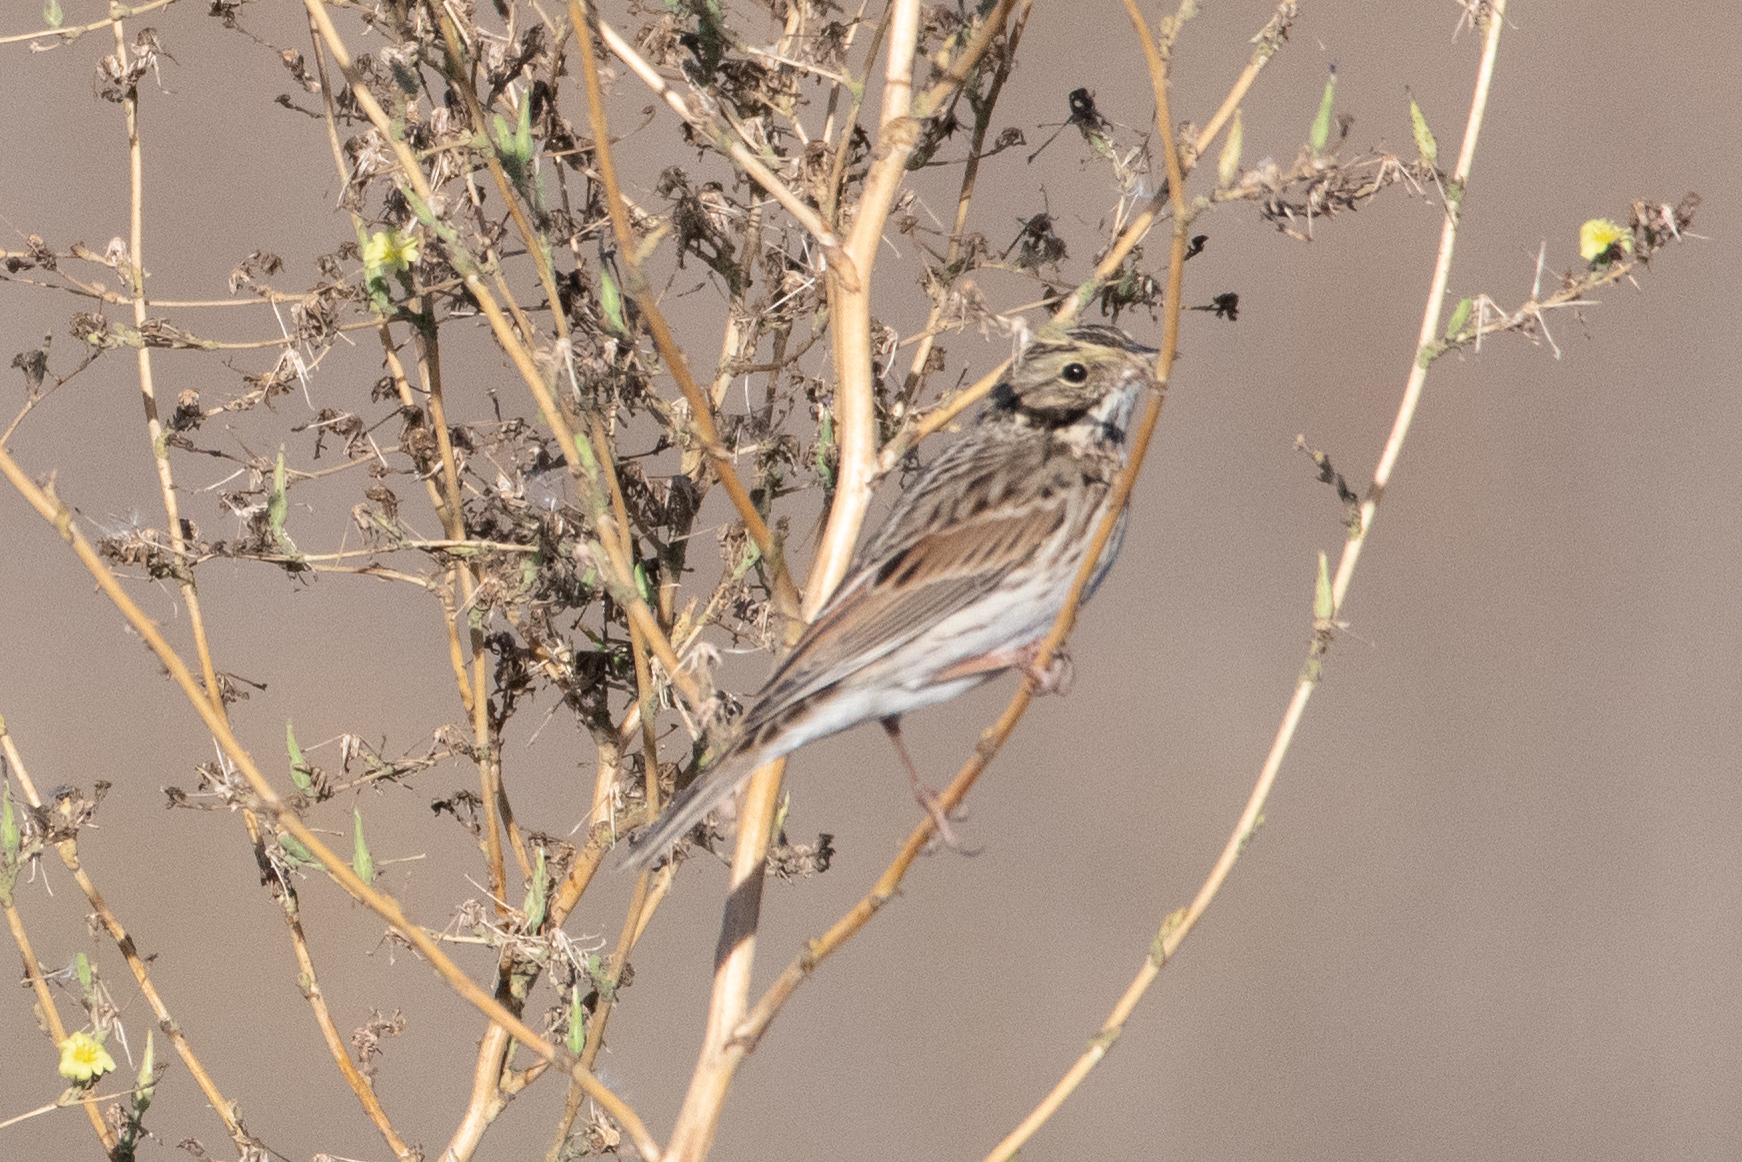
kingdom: Animalia
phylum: Chordata
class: Aves
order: Passeriformes
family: Passerellidae
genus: Passerculus
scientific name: Passerculus sandwichensis
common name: Savannah sparrow
